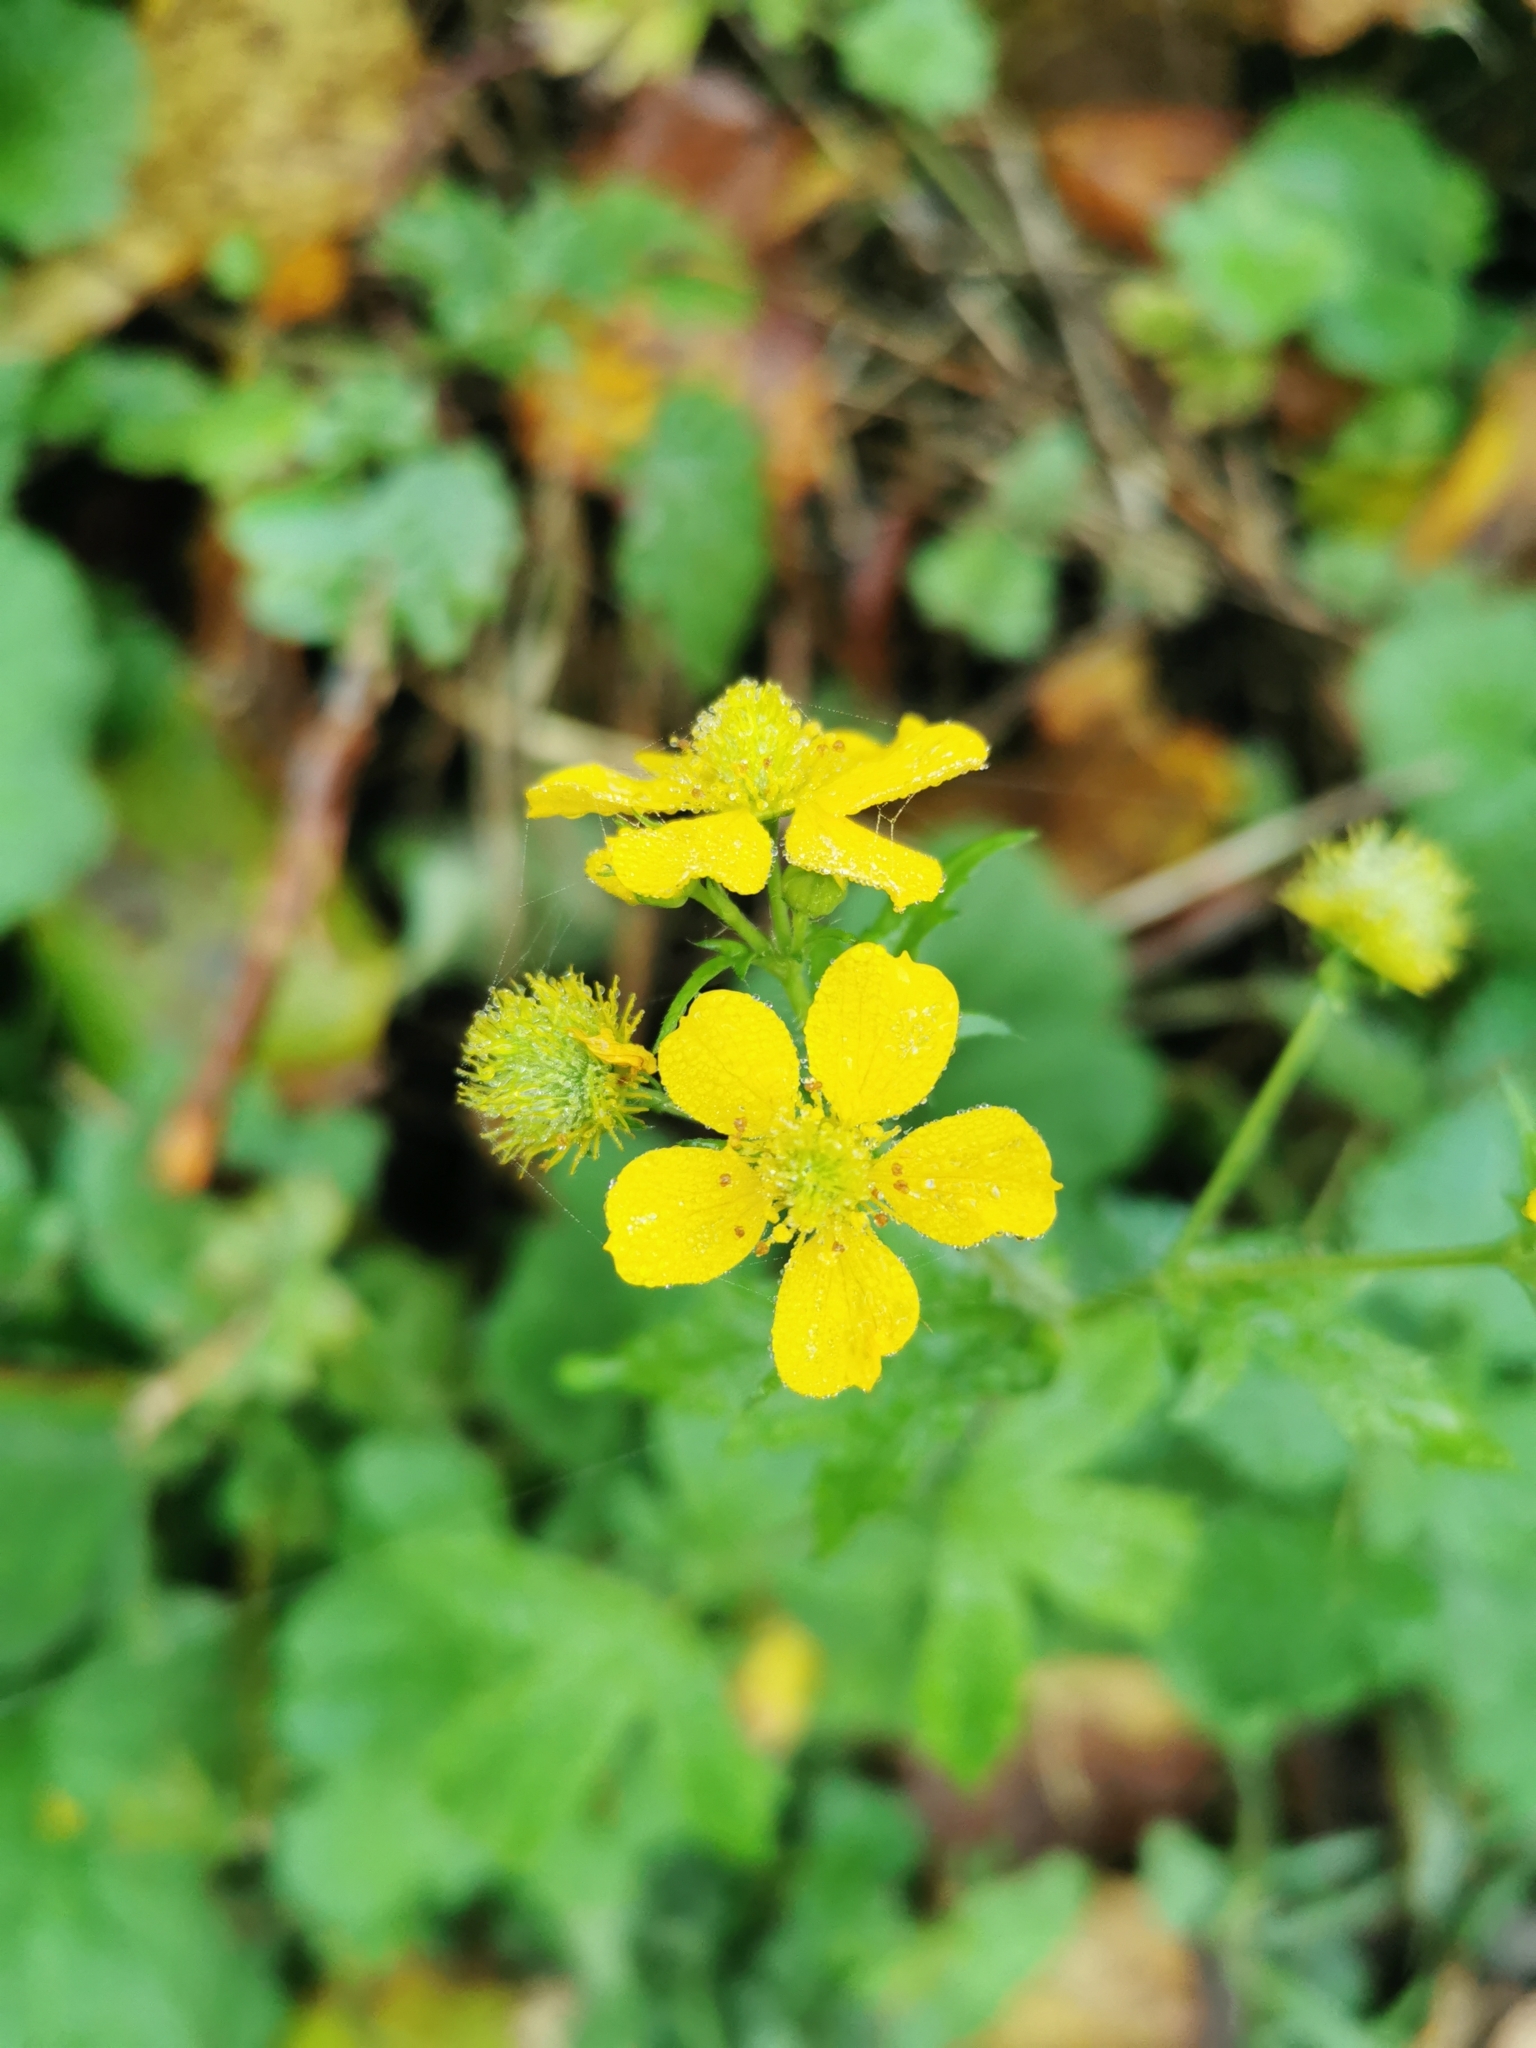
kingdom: Plantae
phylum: Tracheophyta
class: Magnoliopsida
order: Rosales
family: Rosaceae
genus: Geum
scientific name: Geum macrophyllum
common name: Large-leaved avens
